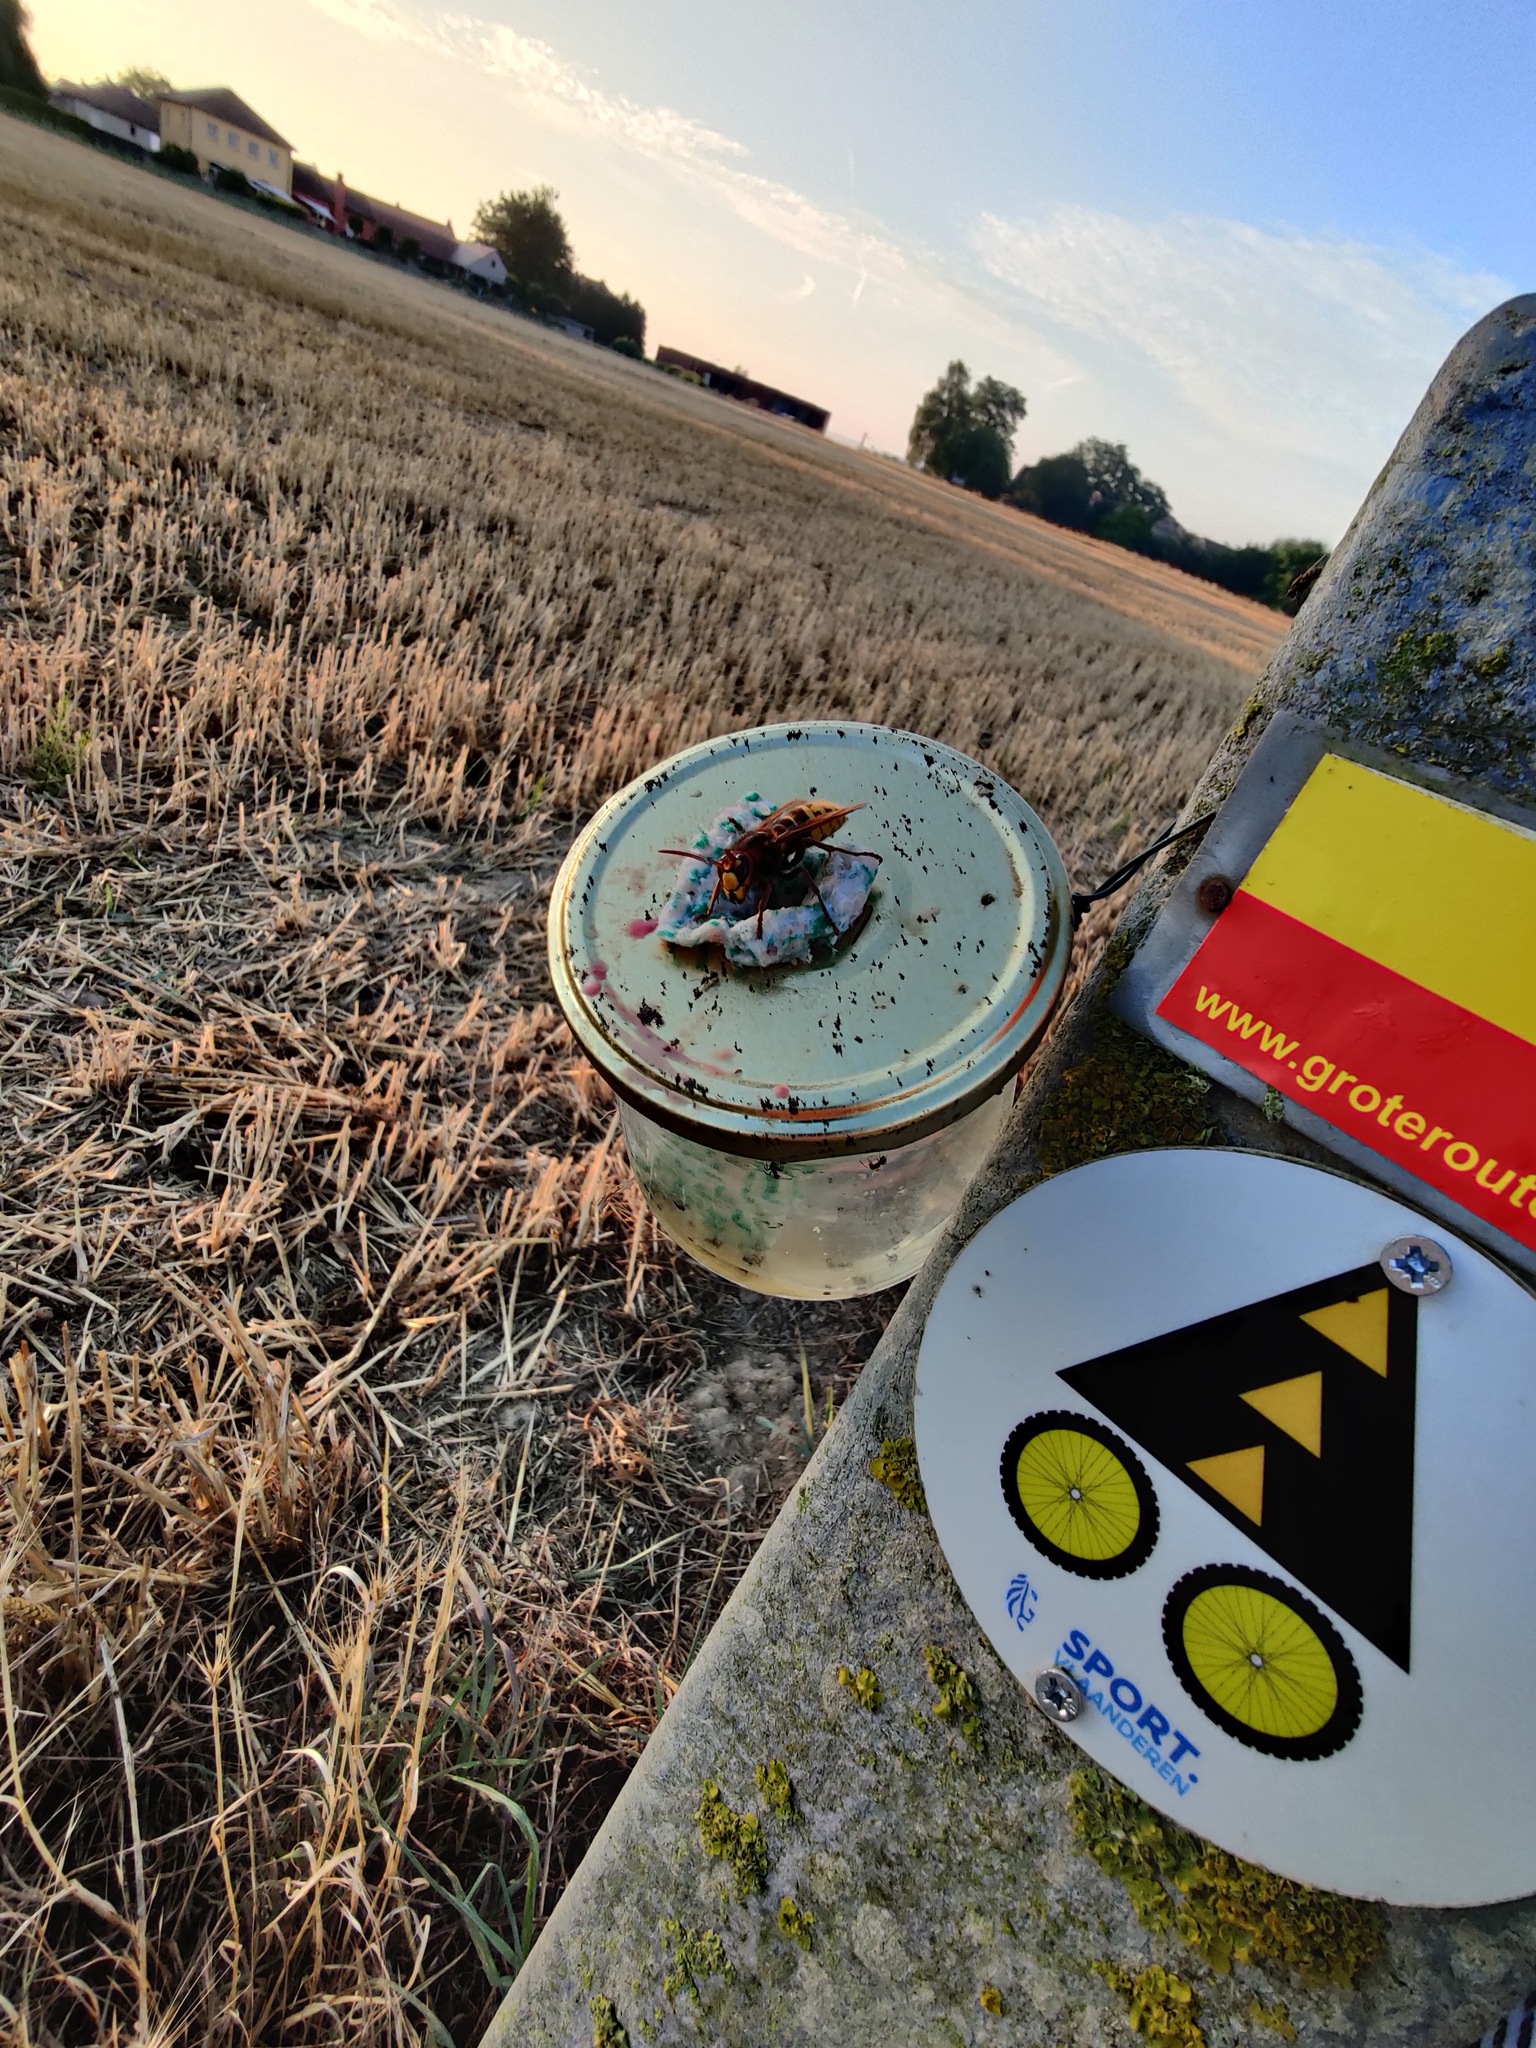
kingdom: Animalia
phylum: Arthropoda
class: Insecta
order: Hymenoptera
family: Vespidae
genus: Vespa
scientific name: Vespa crabro
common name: Hornet
